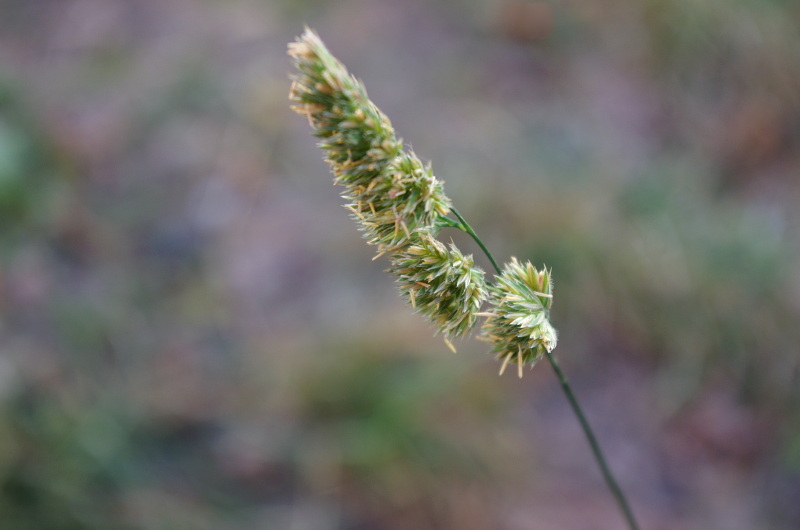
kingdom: Plantae
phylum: Tracheophyta
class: Liliopsida
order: Poales
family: Poaceae
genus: Dactylis
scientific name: Dactylis glomerata
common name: Orchardgrass
